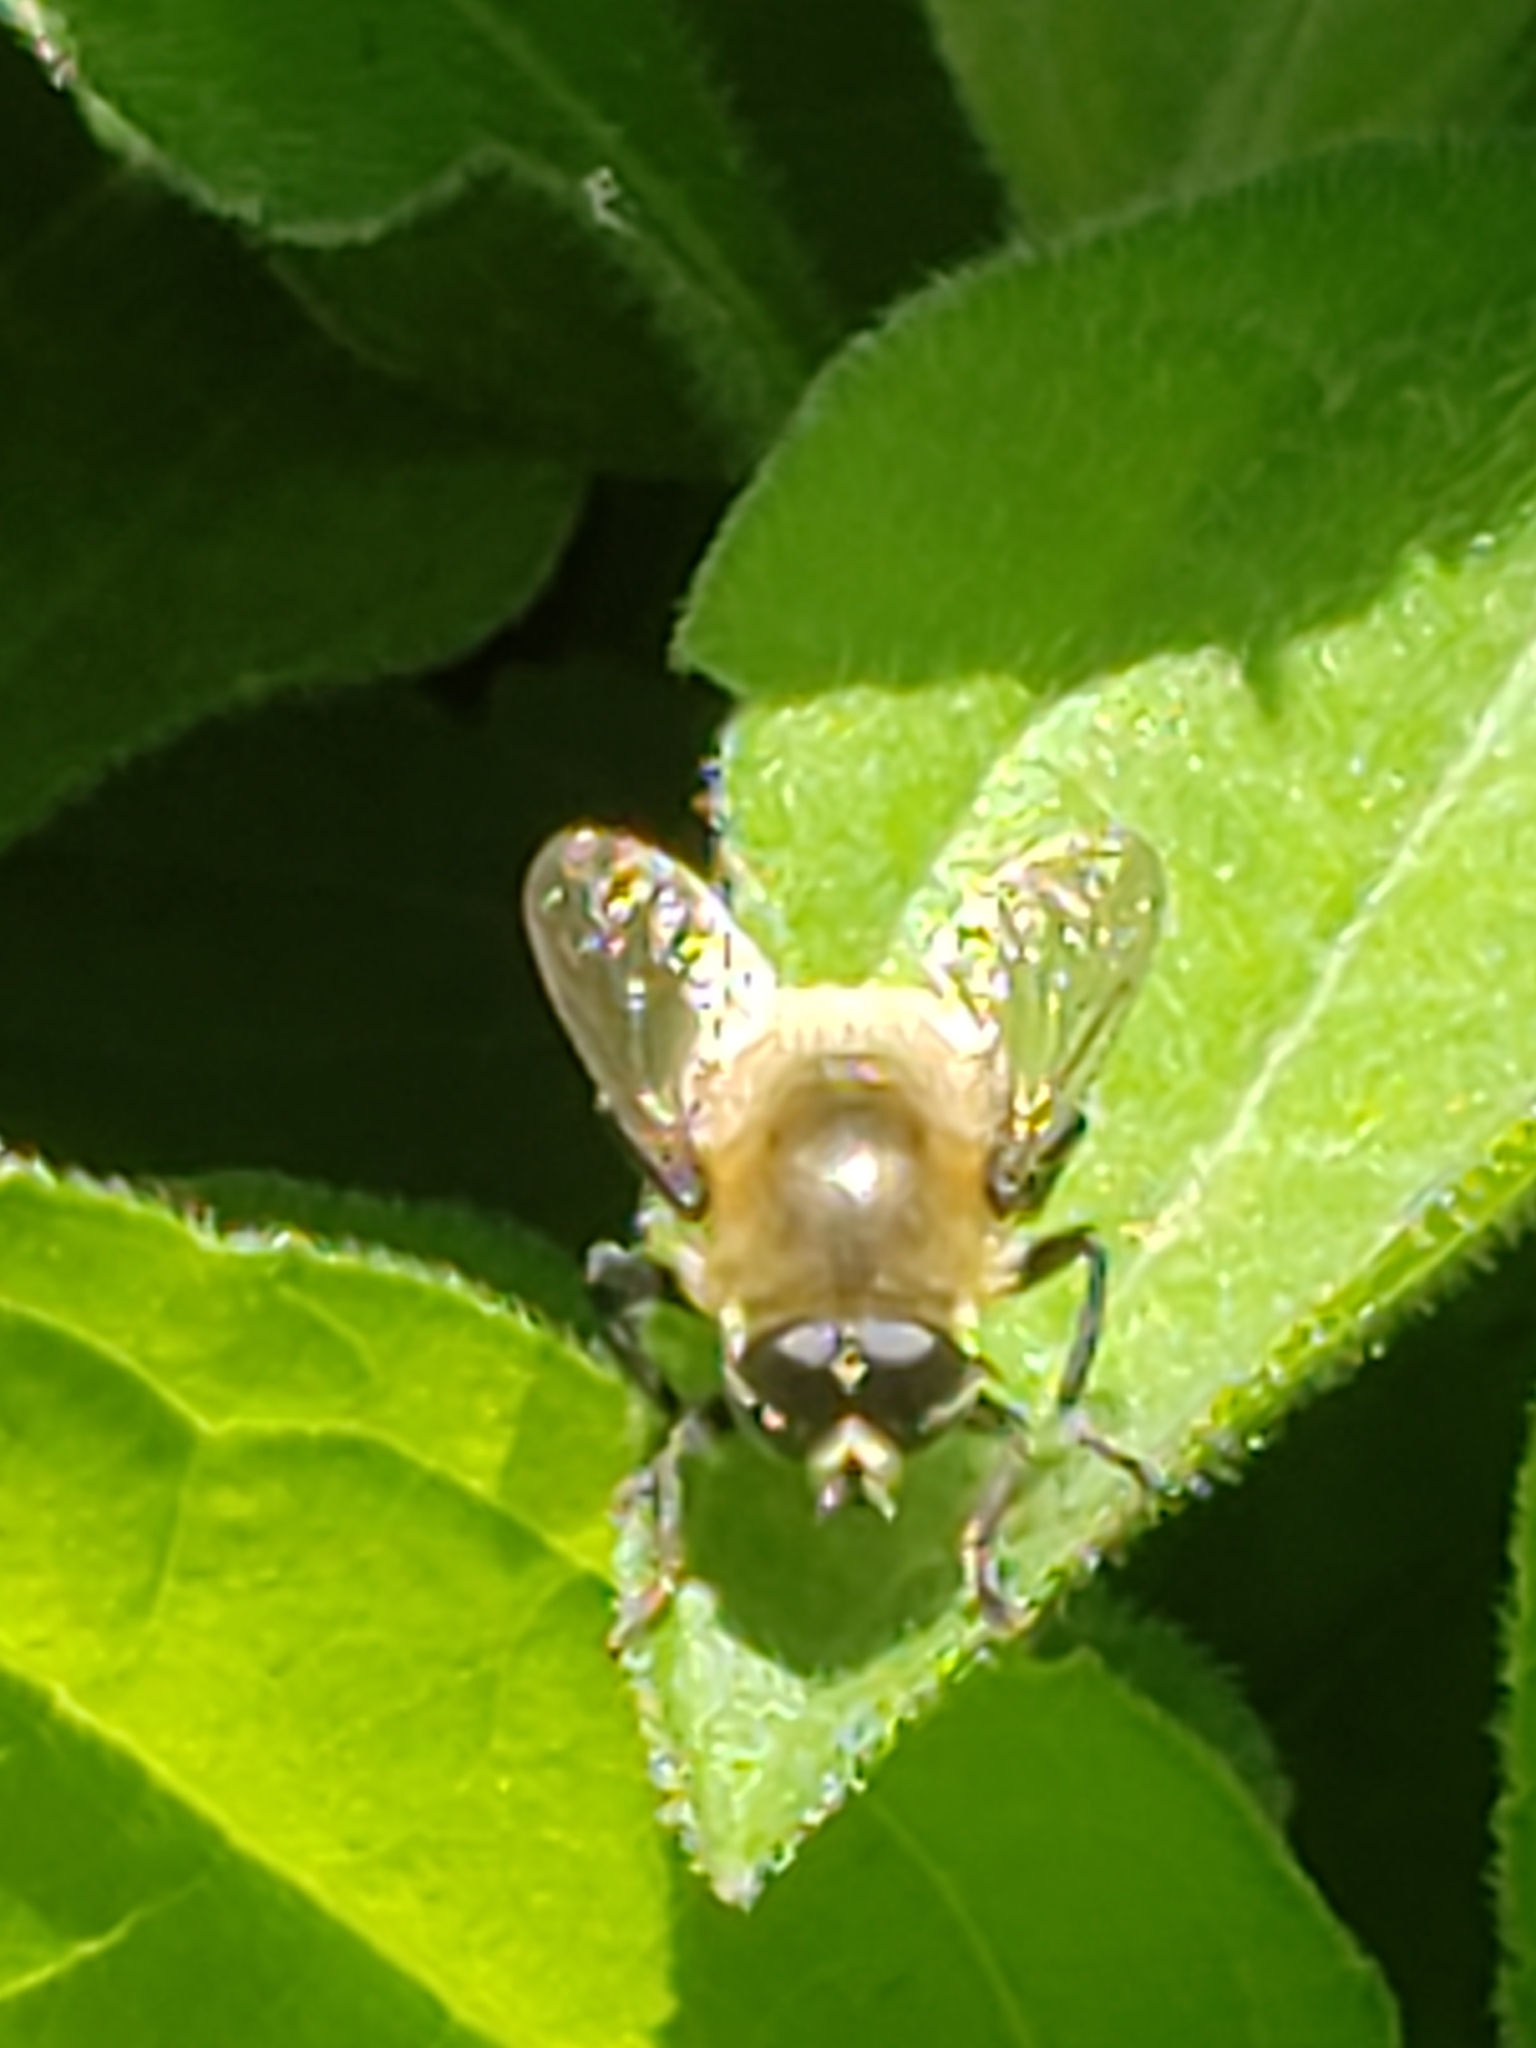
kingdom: Animalia
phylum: Arthropoda
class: Insecta
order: Diptera
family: Syrphidae
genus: Merodon
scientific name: Merodon equestris
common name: Greater bulb-fly
